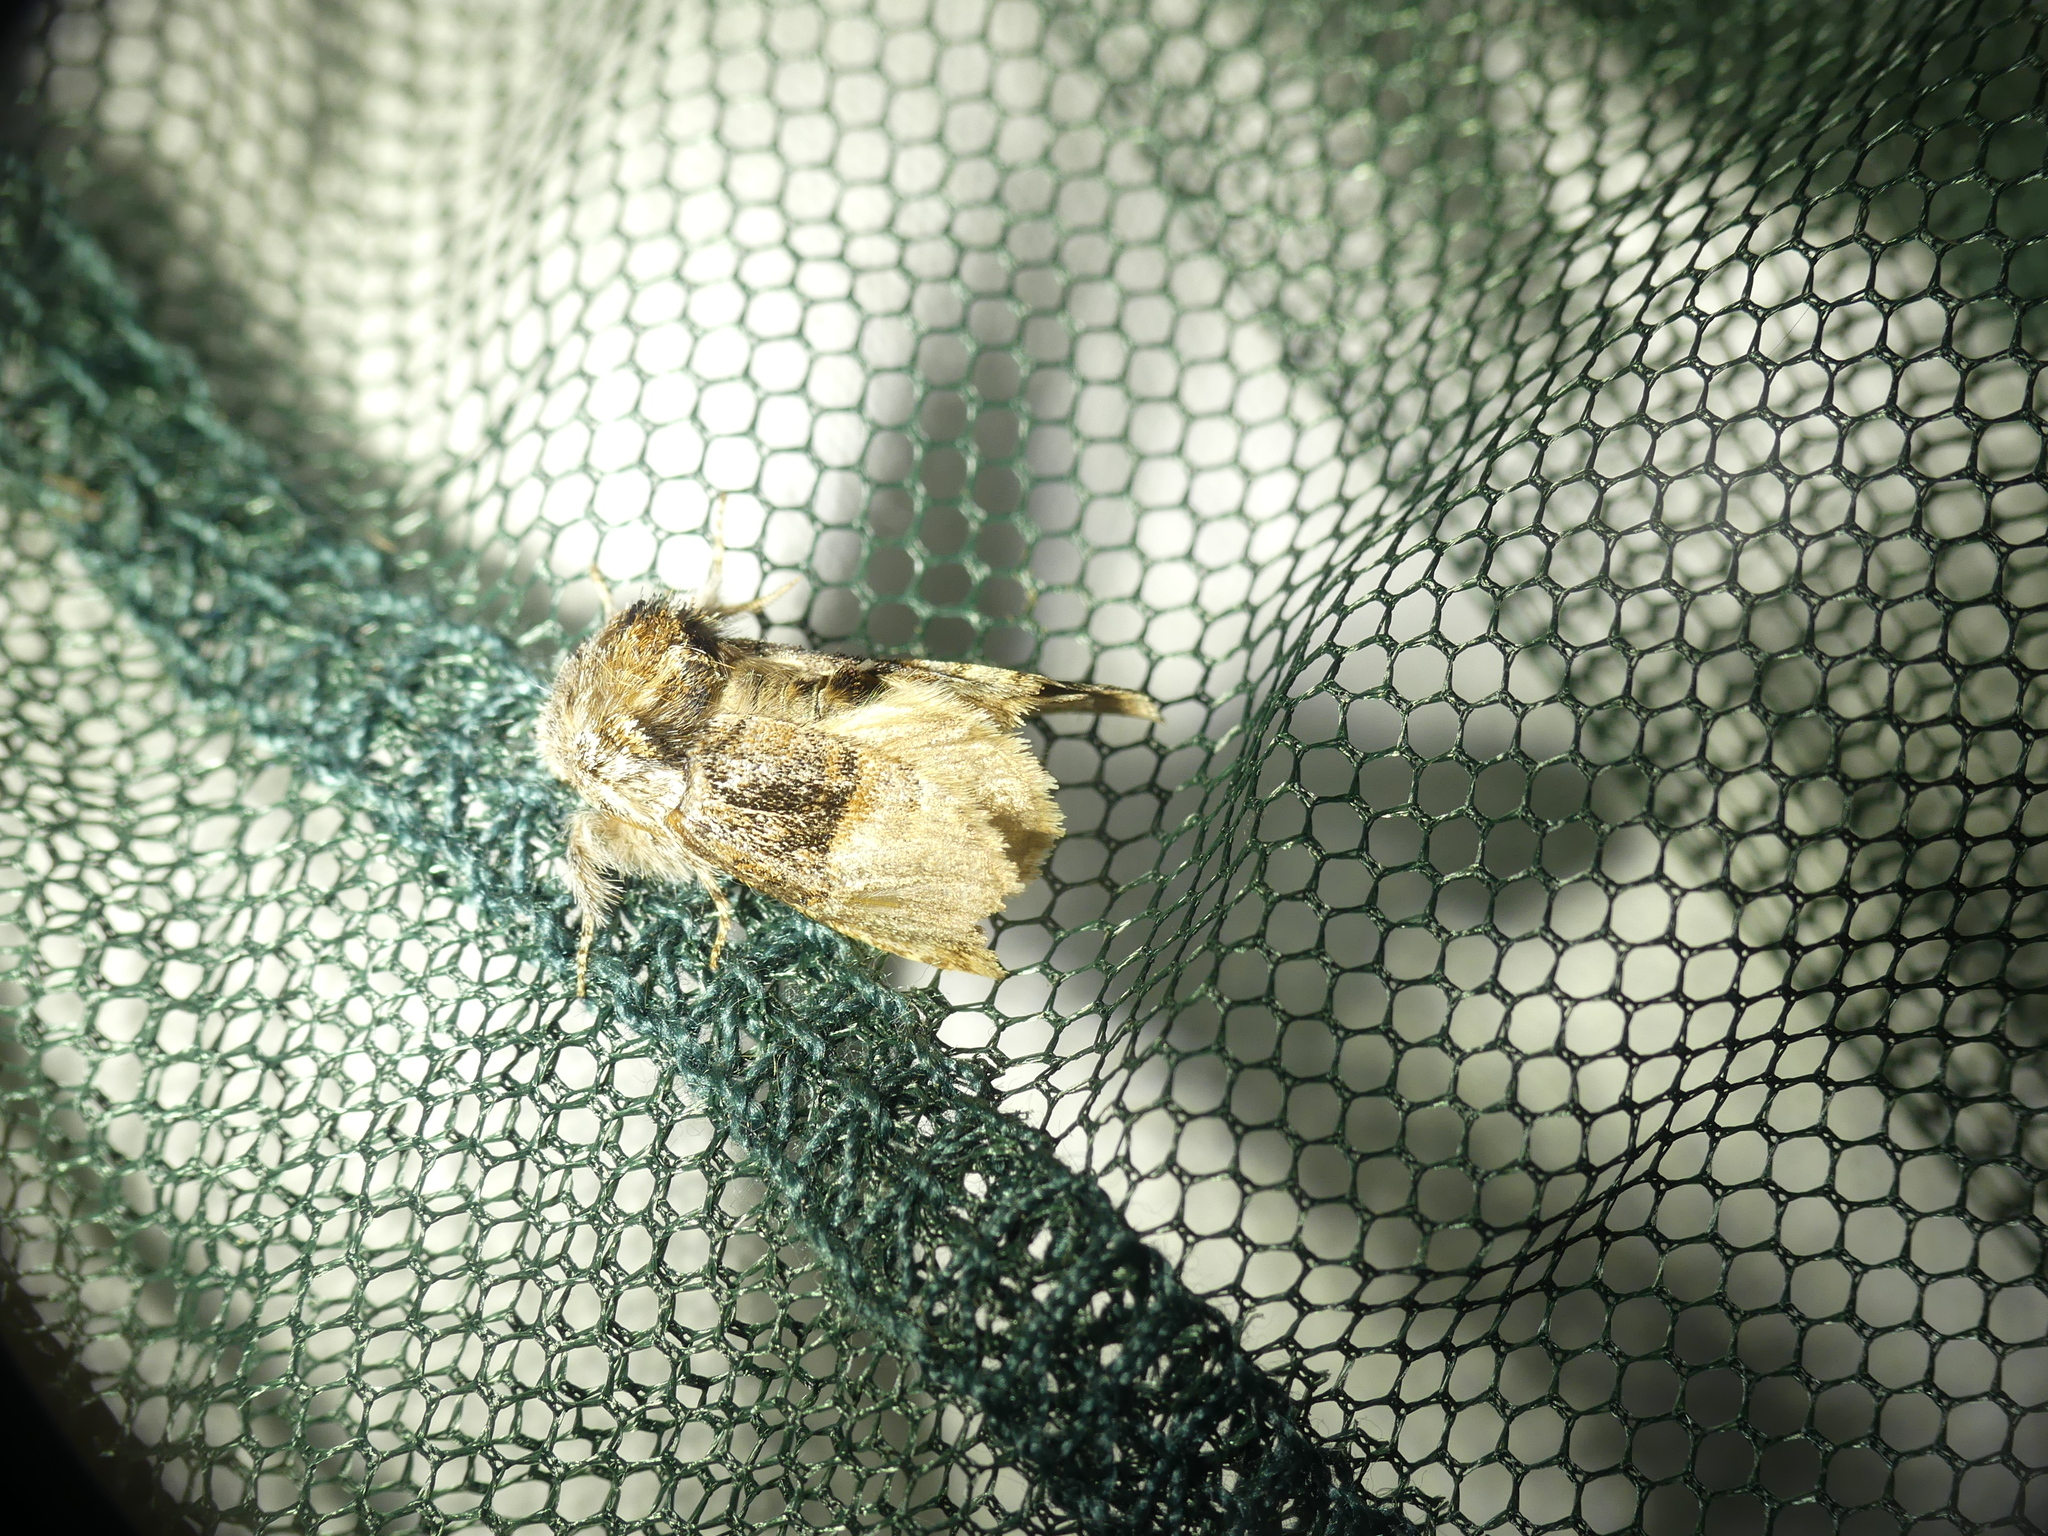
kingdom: Animalia
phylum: Arthropoda
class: Insecta
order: Lepidoptera
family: Noctuidae
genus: Colocasia
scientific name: Colocasia coryli
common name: Nut-tree tussock
